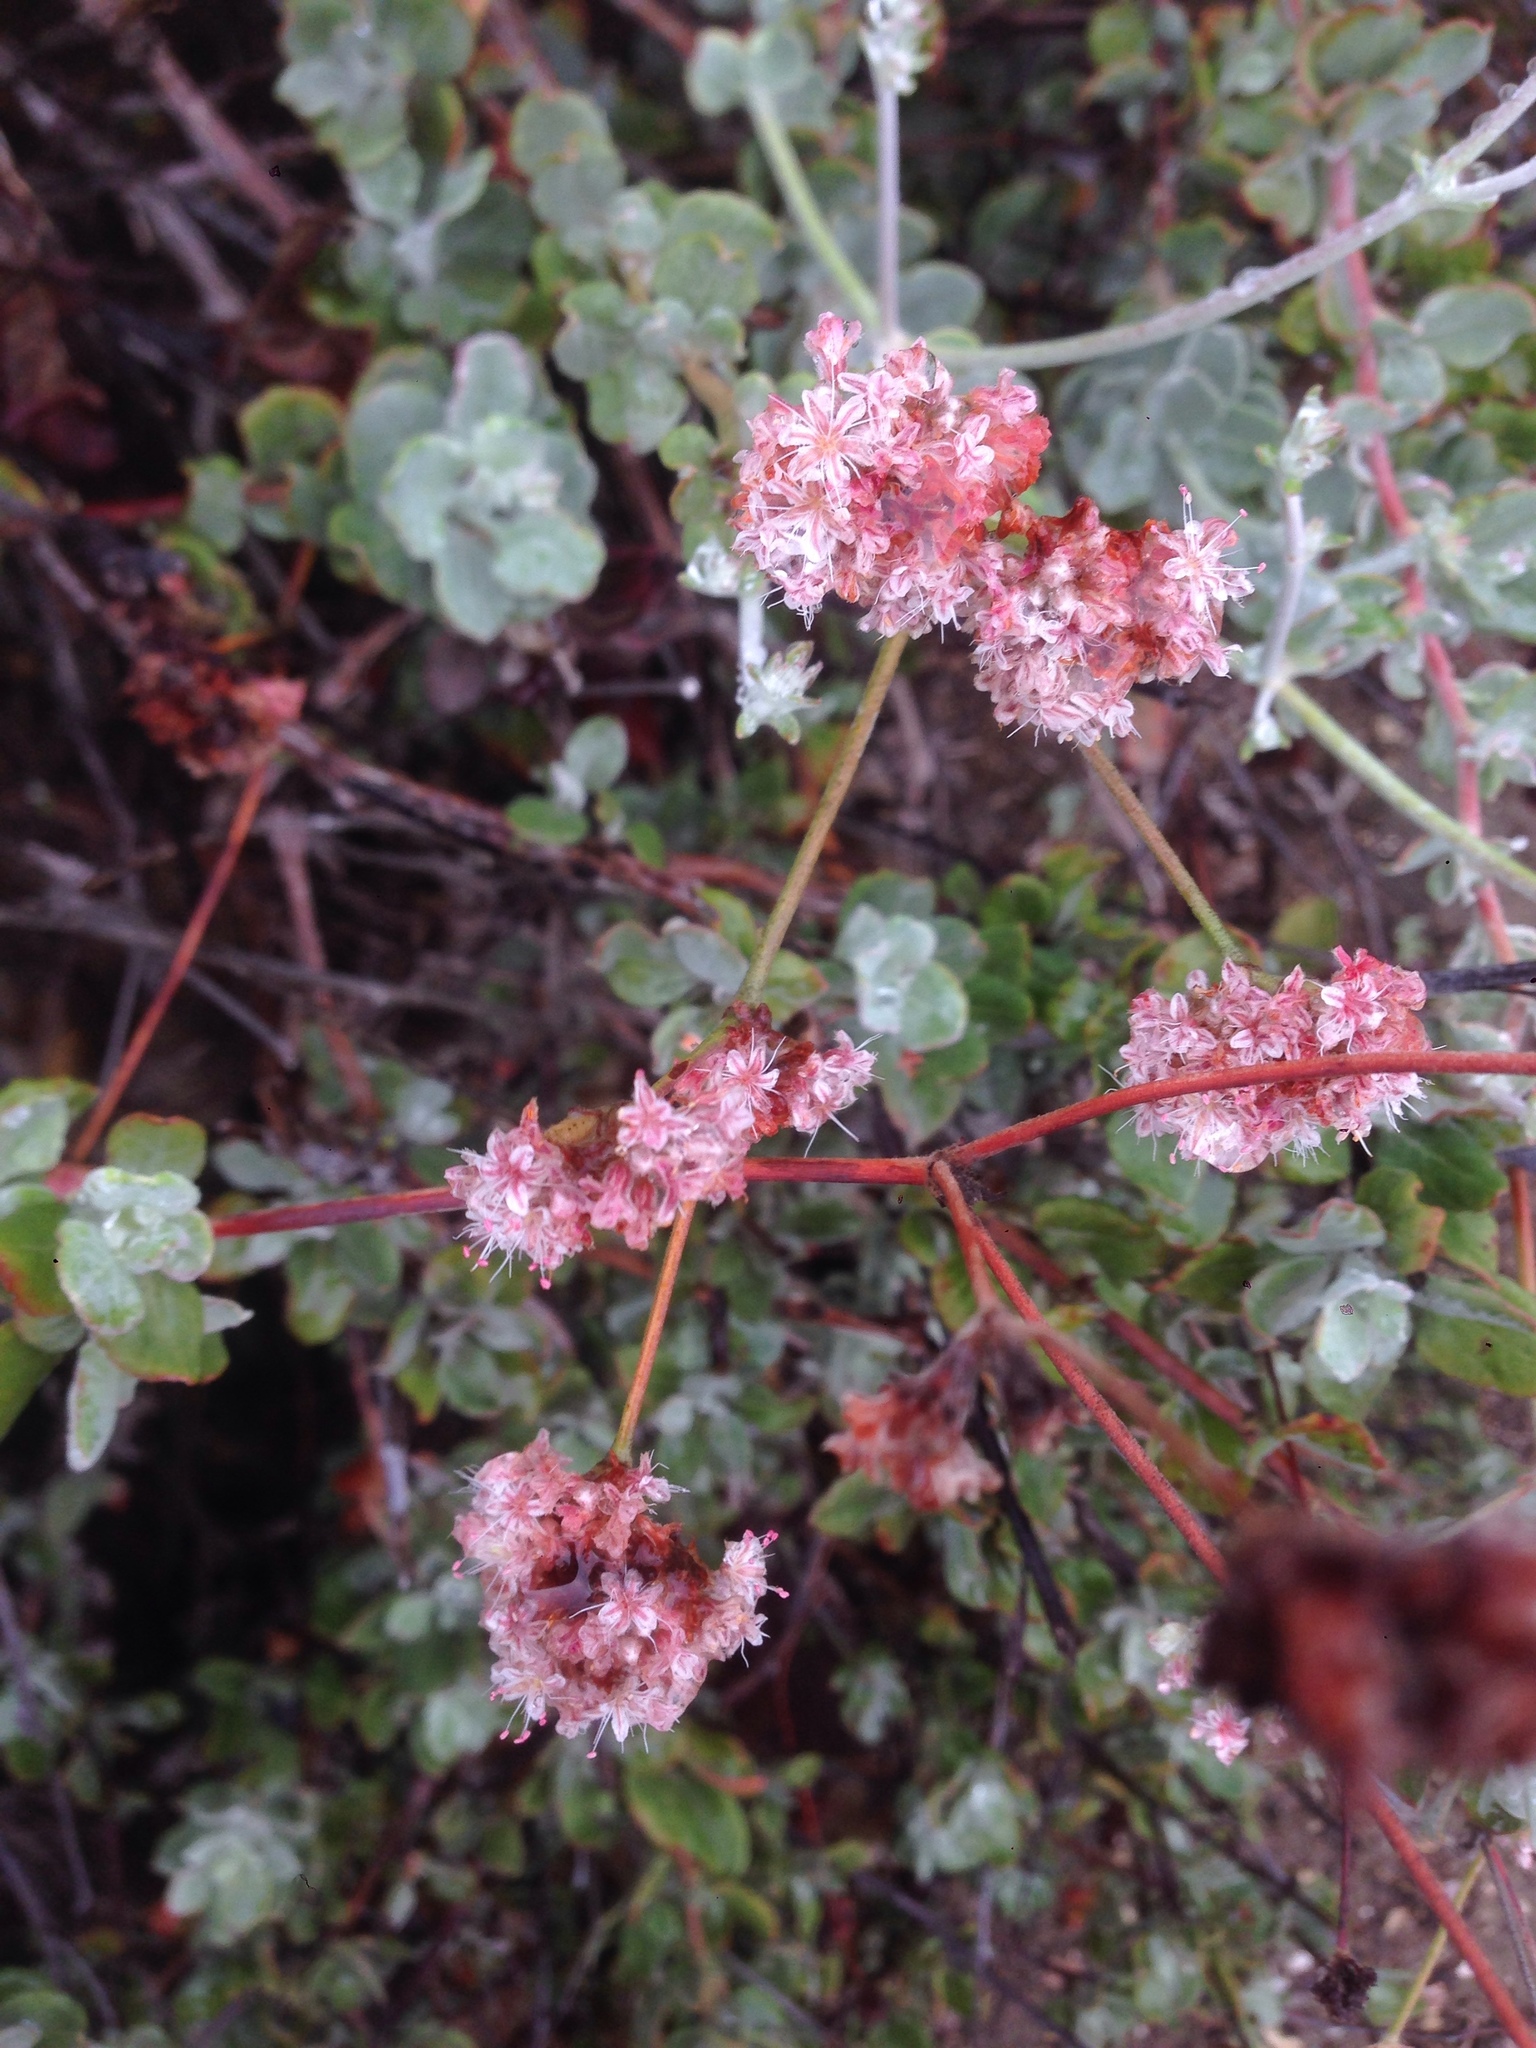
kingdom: Plantae
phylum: Tracheophyta
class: Magnoliopsida
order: Caryophyllales
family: Polygonaceae
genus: Eriogonum
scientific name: Eriogonum cinereum
